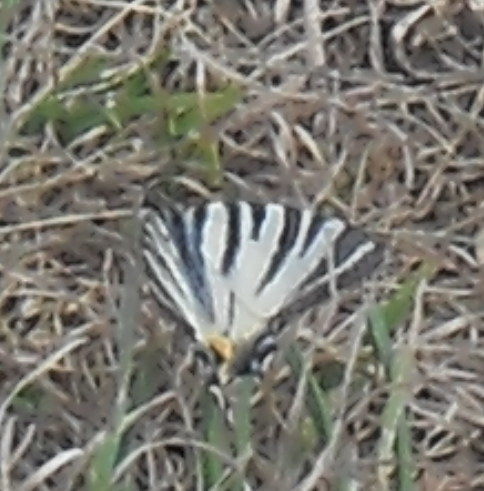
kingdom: Animalia
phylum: Arthropoda
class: Insecta
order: Lepidoptera
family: Papilionidae
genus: Iphiclides
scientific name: Iphiclides podalirius
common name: Scarce swallowtail
